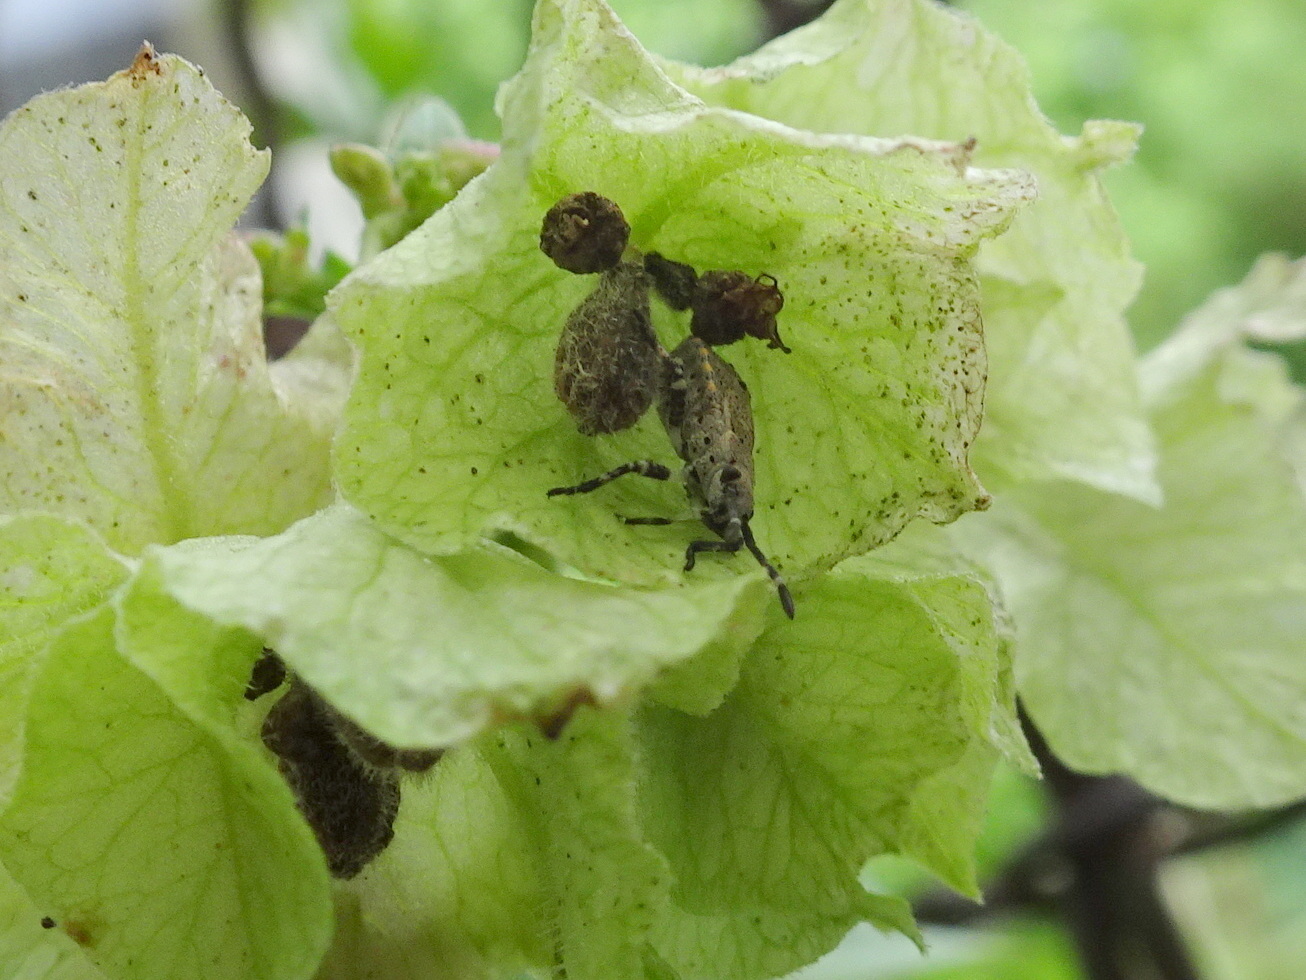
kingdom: Animalia
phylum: Arthropoda
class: Insecta
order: Hemiptera
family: Coreidae
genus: Catorhintha
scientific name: Catorhintha mendica
